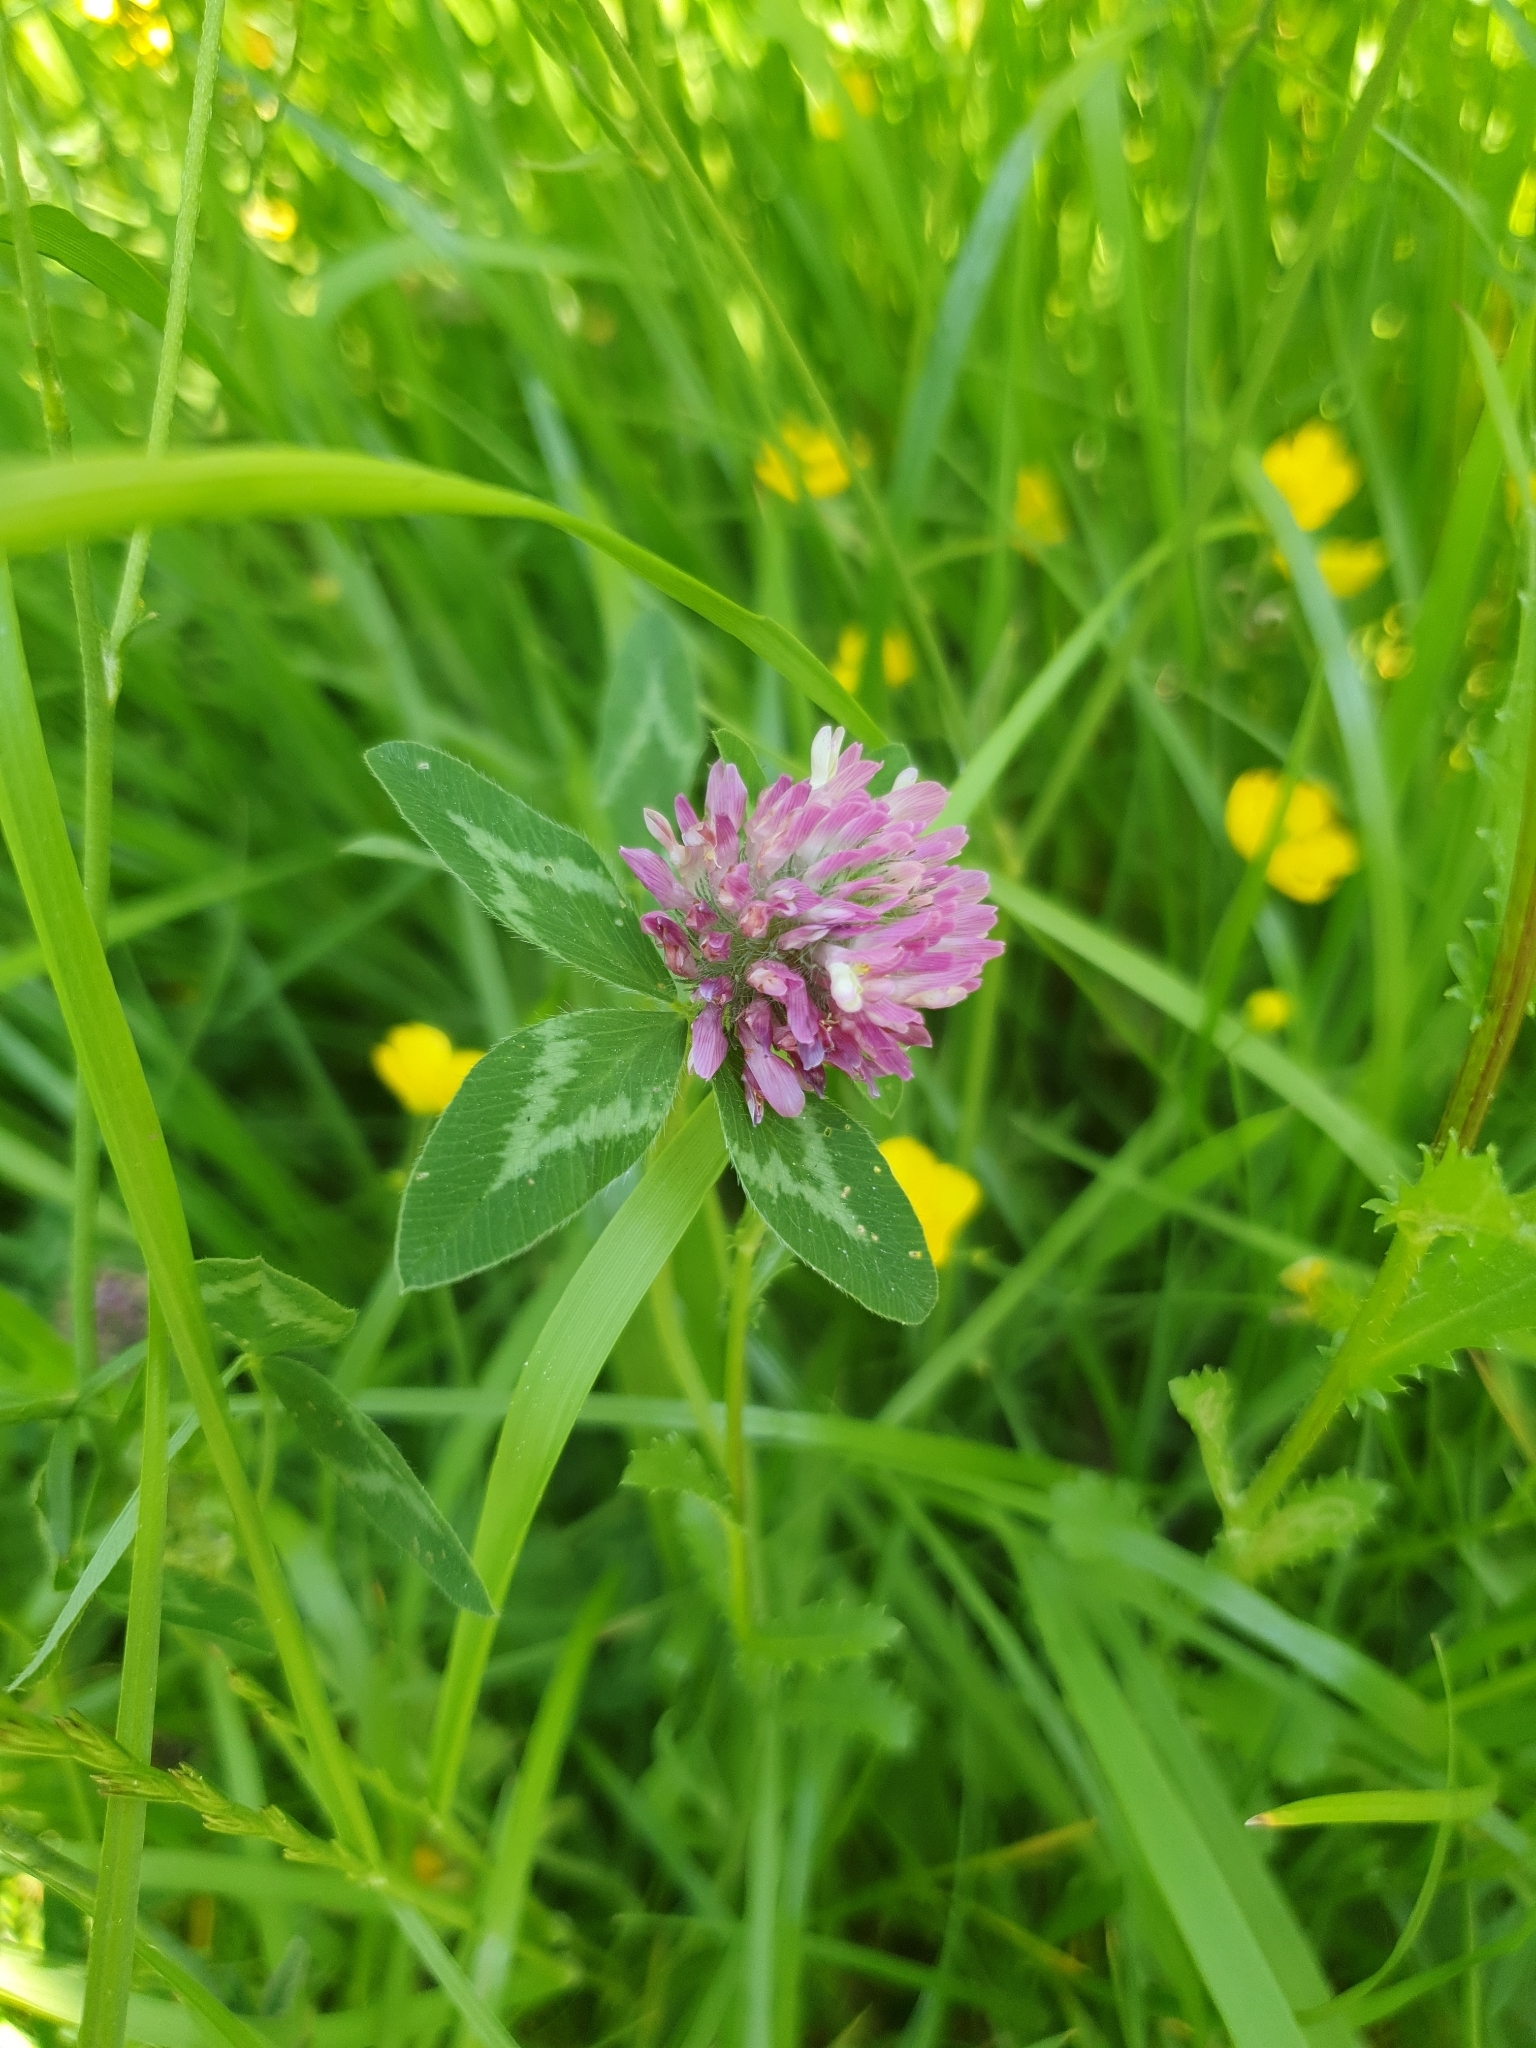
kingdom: Plantae
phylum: Tracheophyta
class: Magnoliopsida
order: Fabales
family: Fabaceae
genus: Trifolium
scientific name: Trifolium pratense
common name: Red clover
